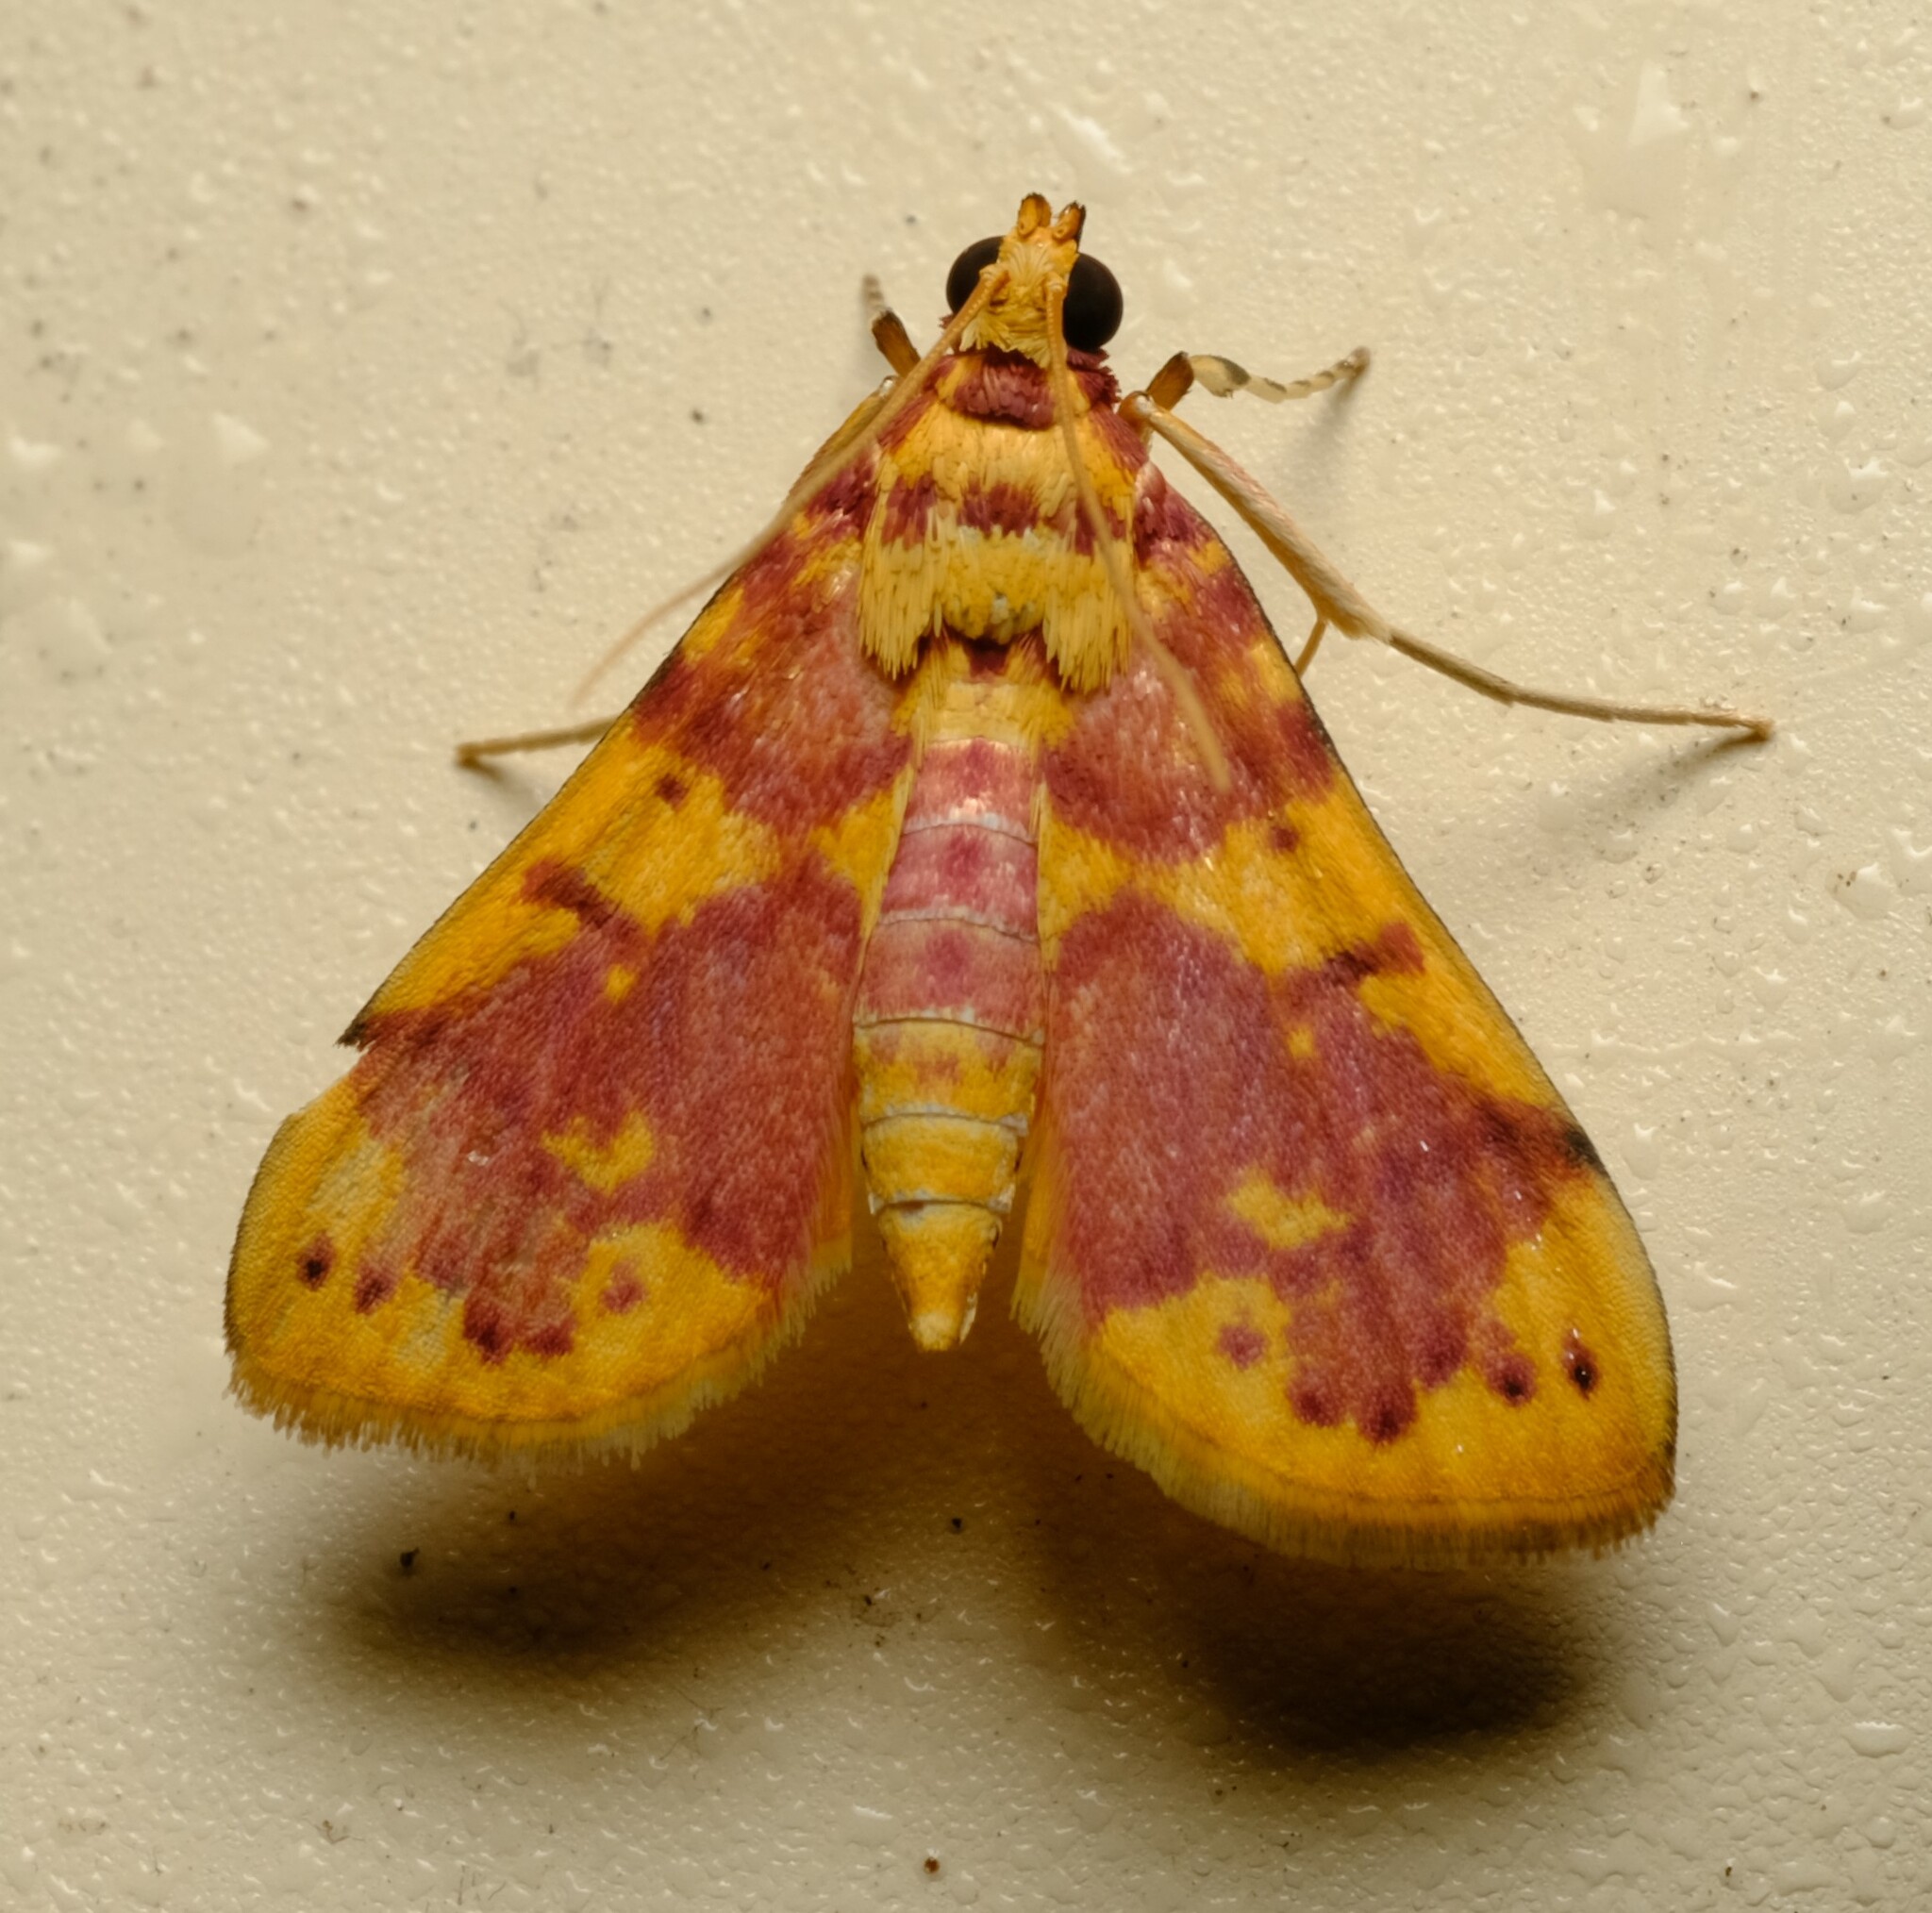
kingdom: Animalia
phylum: Arthropoda
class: Insecta
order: Lepidoptera
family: Crambidae
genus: Conogethes
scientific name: Conogethes haemactalis
